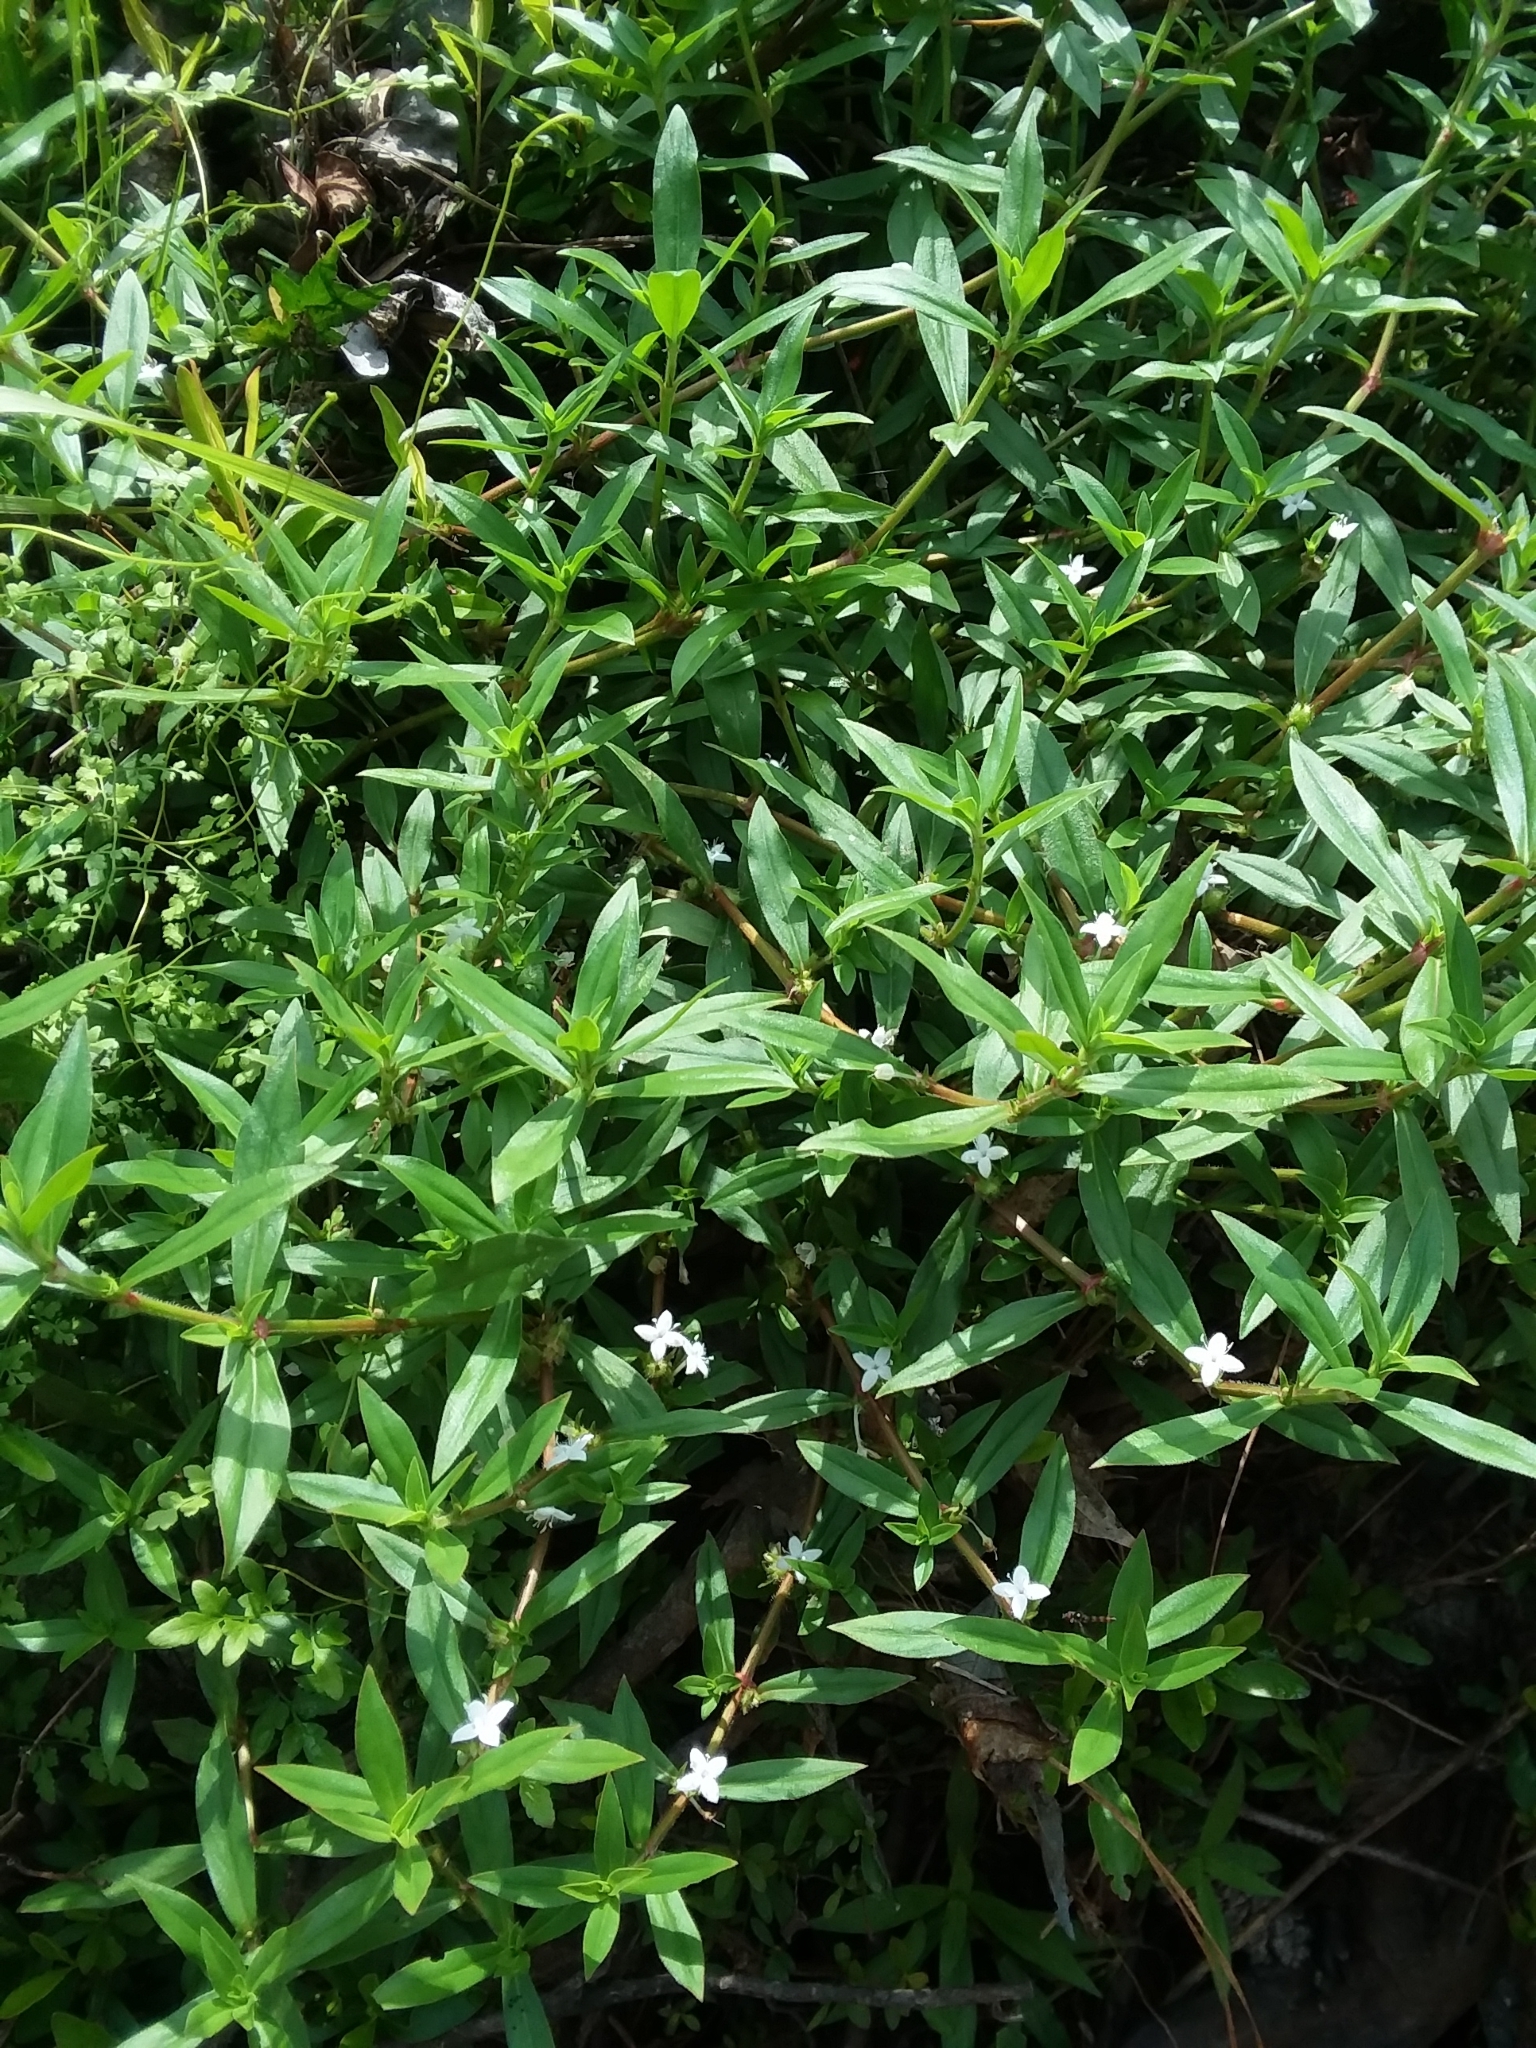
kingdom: Plantae
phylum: Tracheophyta
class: Magnoliopsida
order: Gentianales
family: Rubiaceae
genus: Diodia
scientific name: Diodia virginiana
